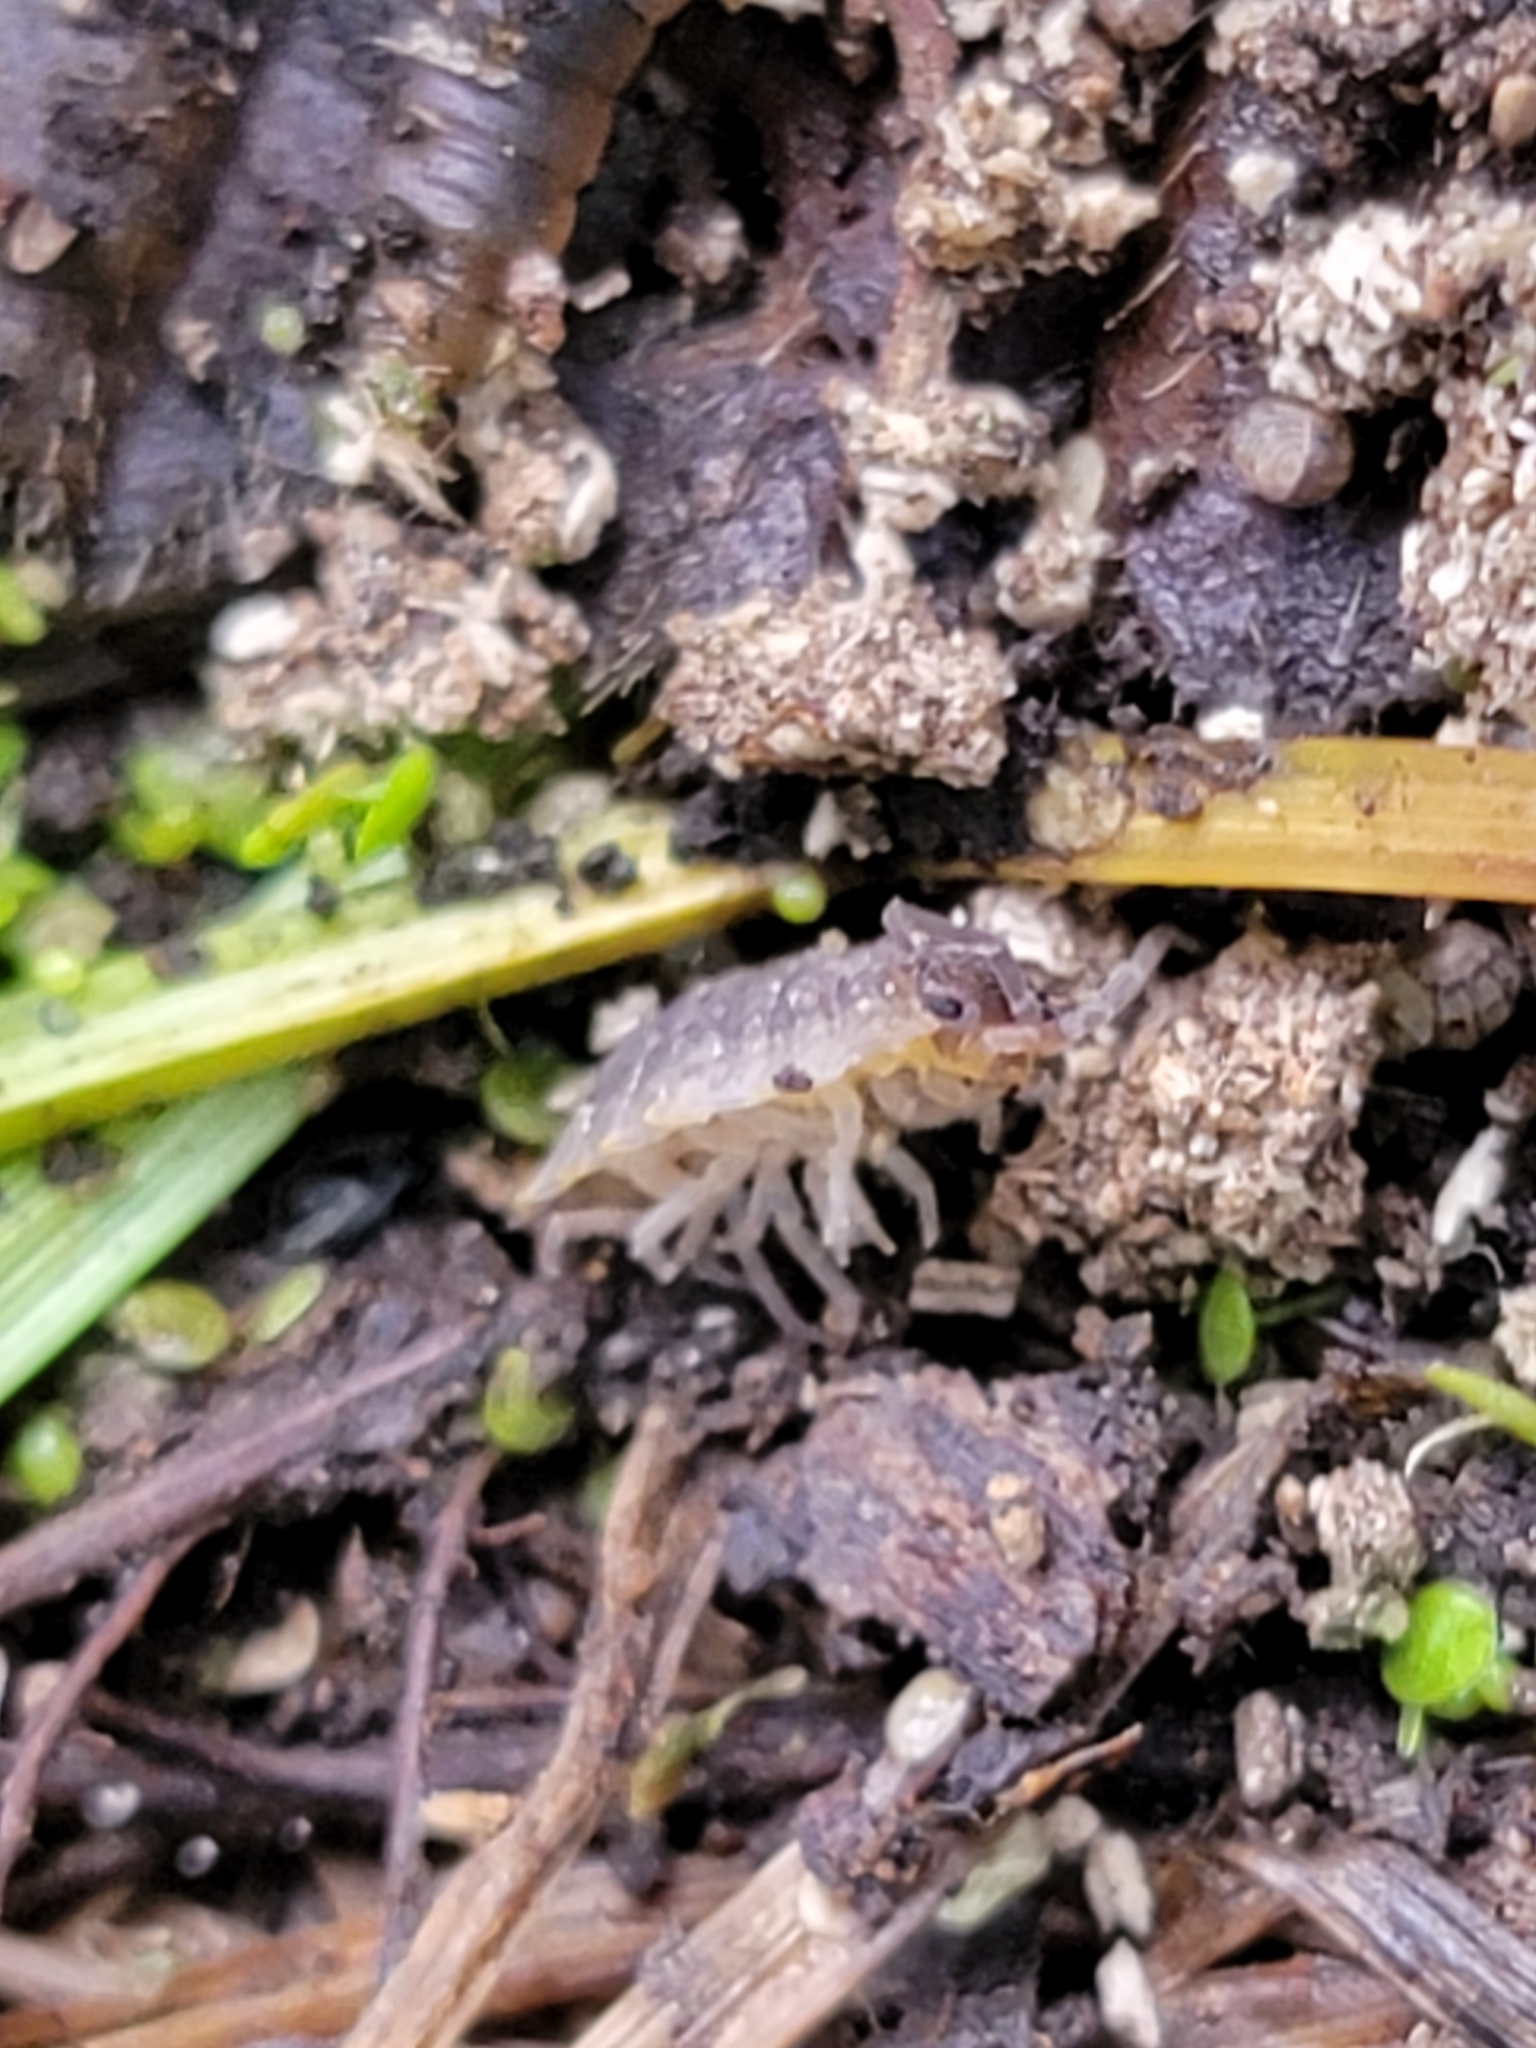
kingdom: Animalia
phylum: Arthropoda
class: Malacostraca
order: Isopoda
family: Porcellionidae
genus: Porcellio
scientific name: Porcellio scaber
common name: Common rough woodlouse
